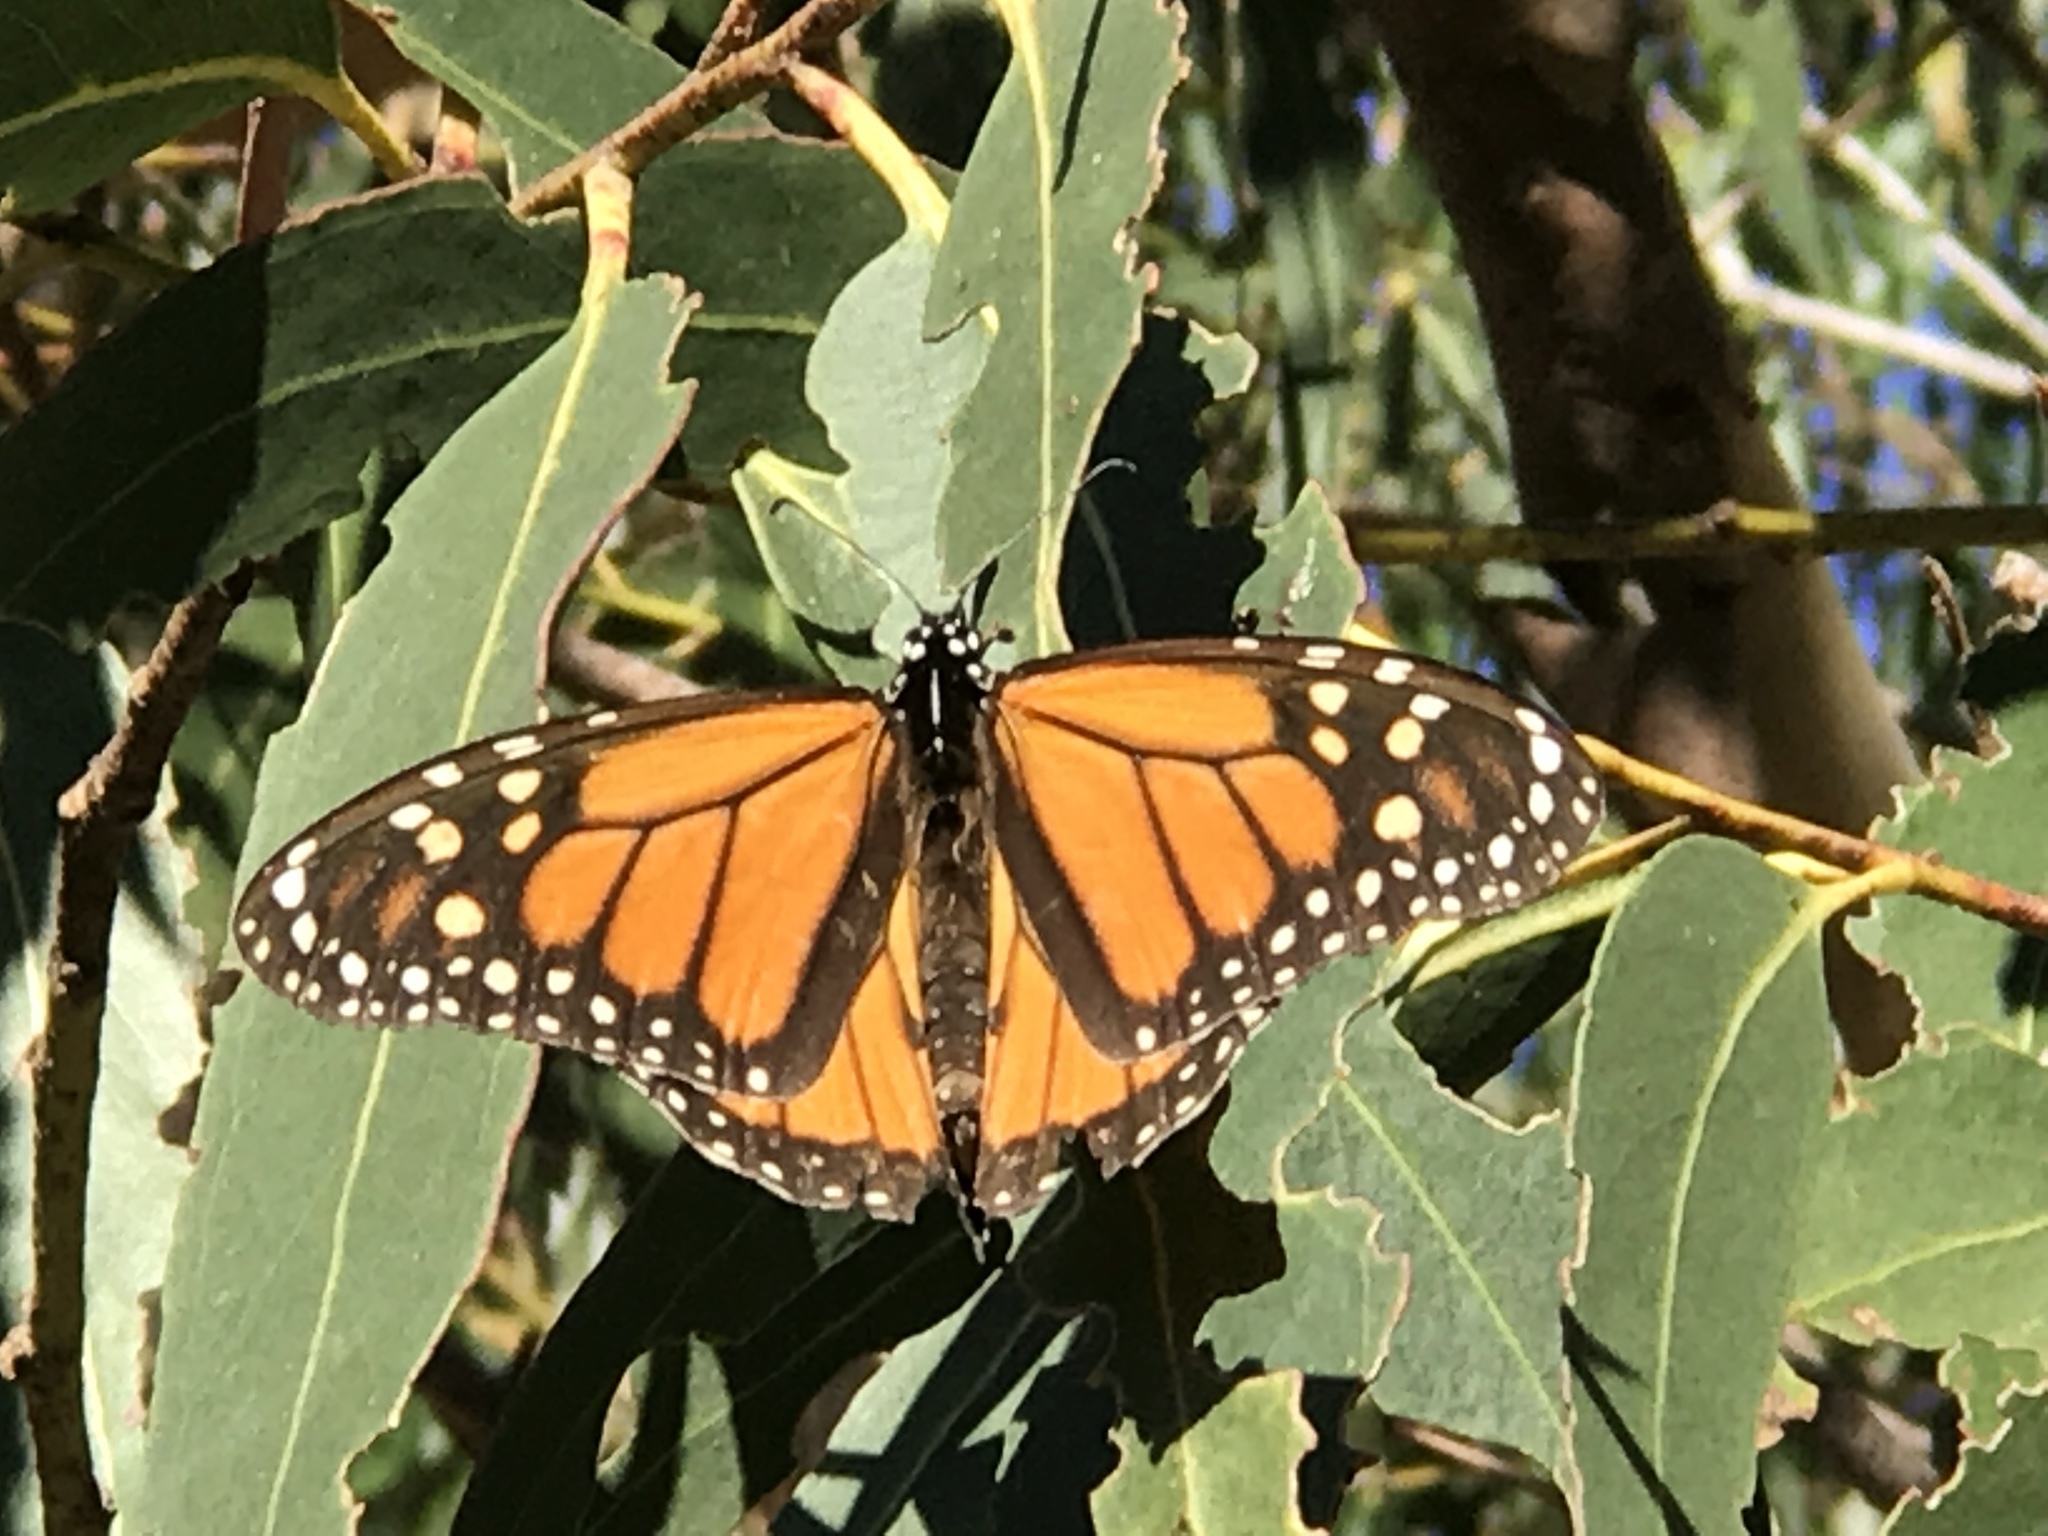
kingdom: Animalia
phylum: Arthropoda
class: Insecta
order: Lepidoptera
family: Nymphalidae
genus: Danaus
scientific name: Danaus plexippus
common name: Monarch
